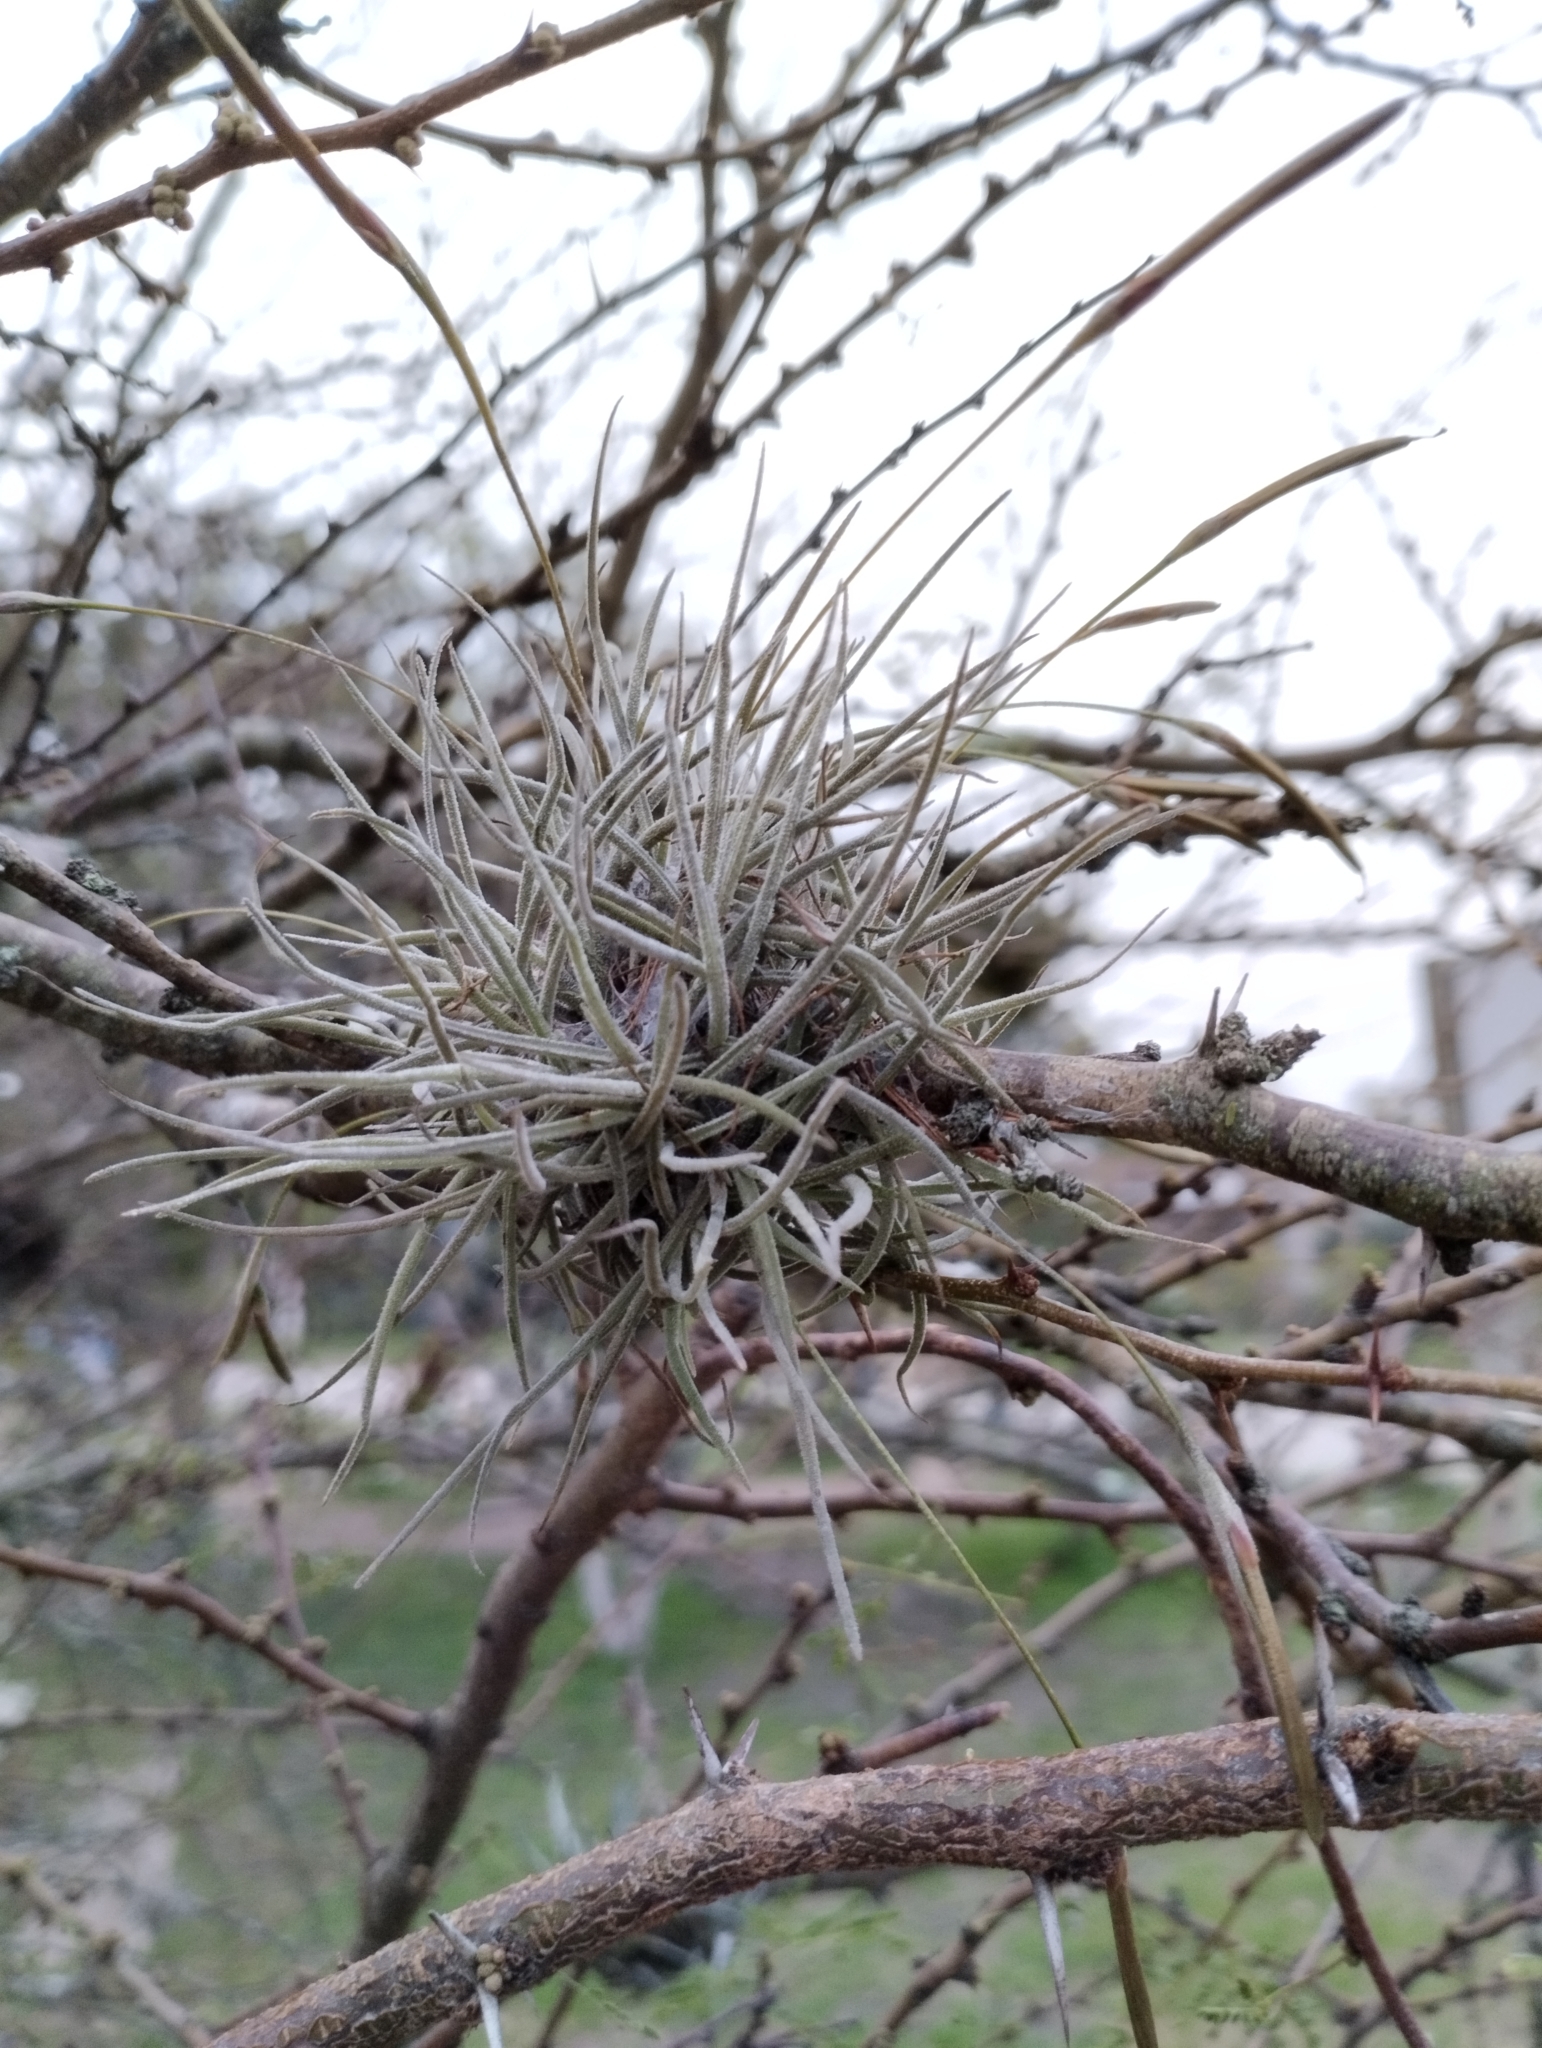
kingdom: Plantae
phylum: Tracheophyta
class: Liliopsida
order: Poales
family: Bromeliaceae
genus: Tillandsia
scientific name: Tillandsia recurvata
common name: Small ballmoss
